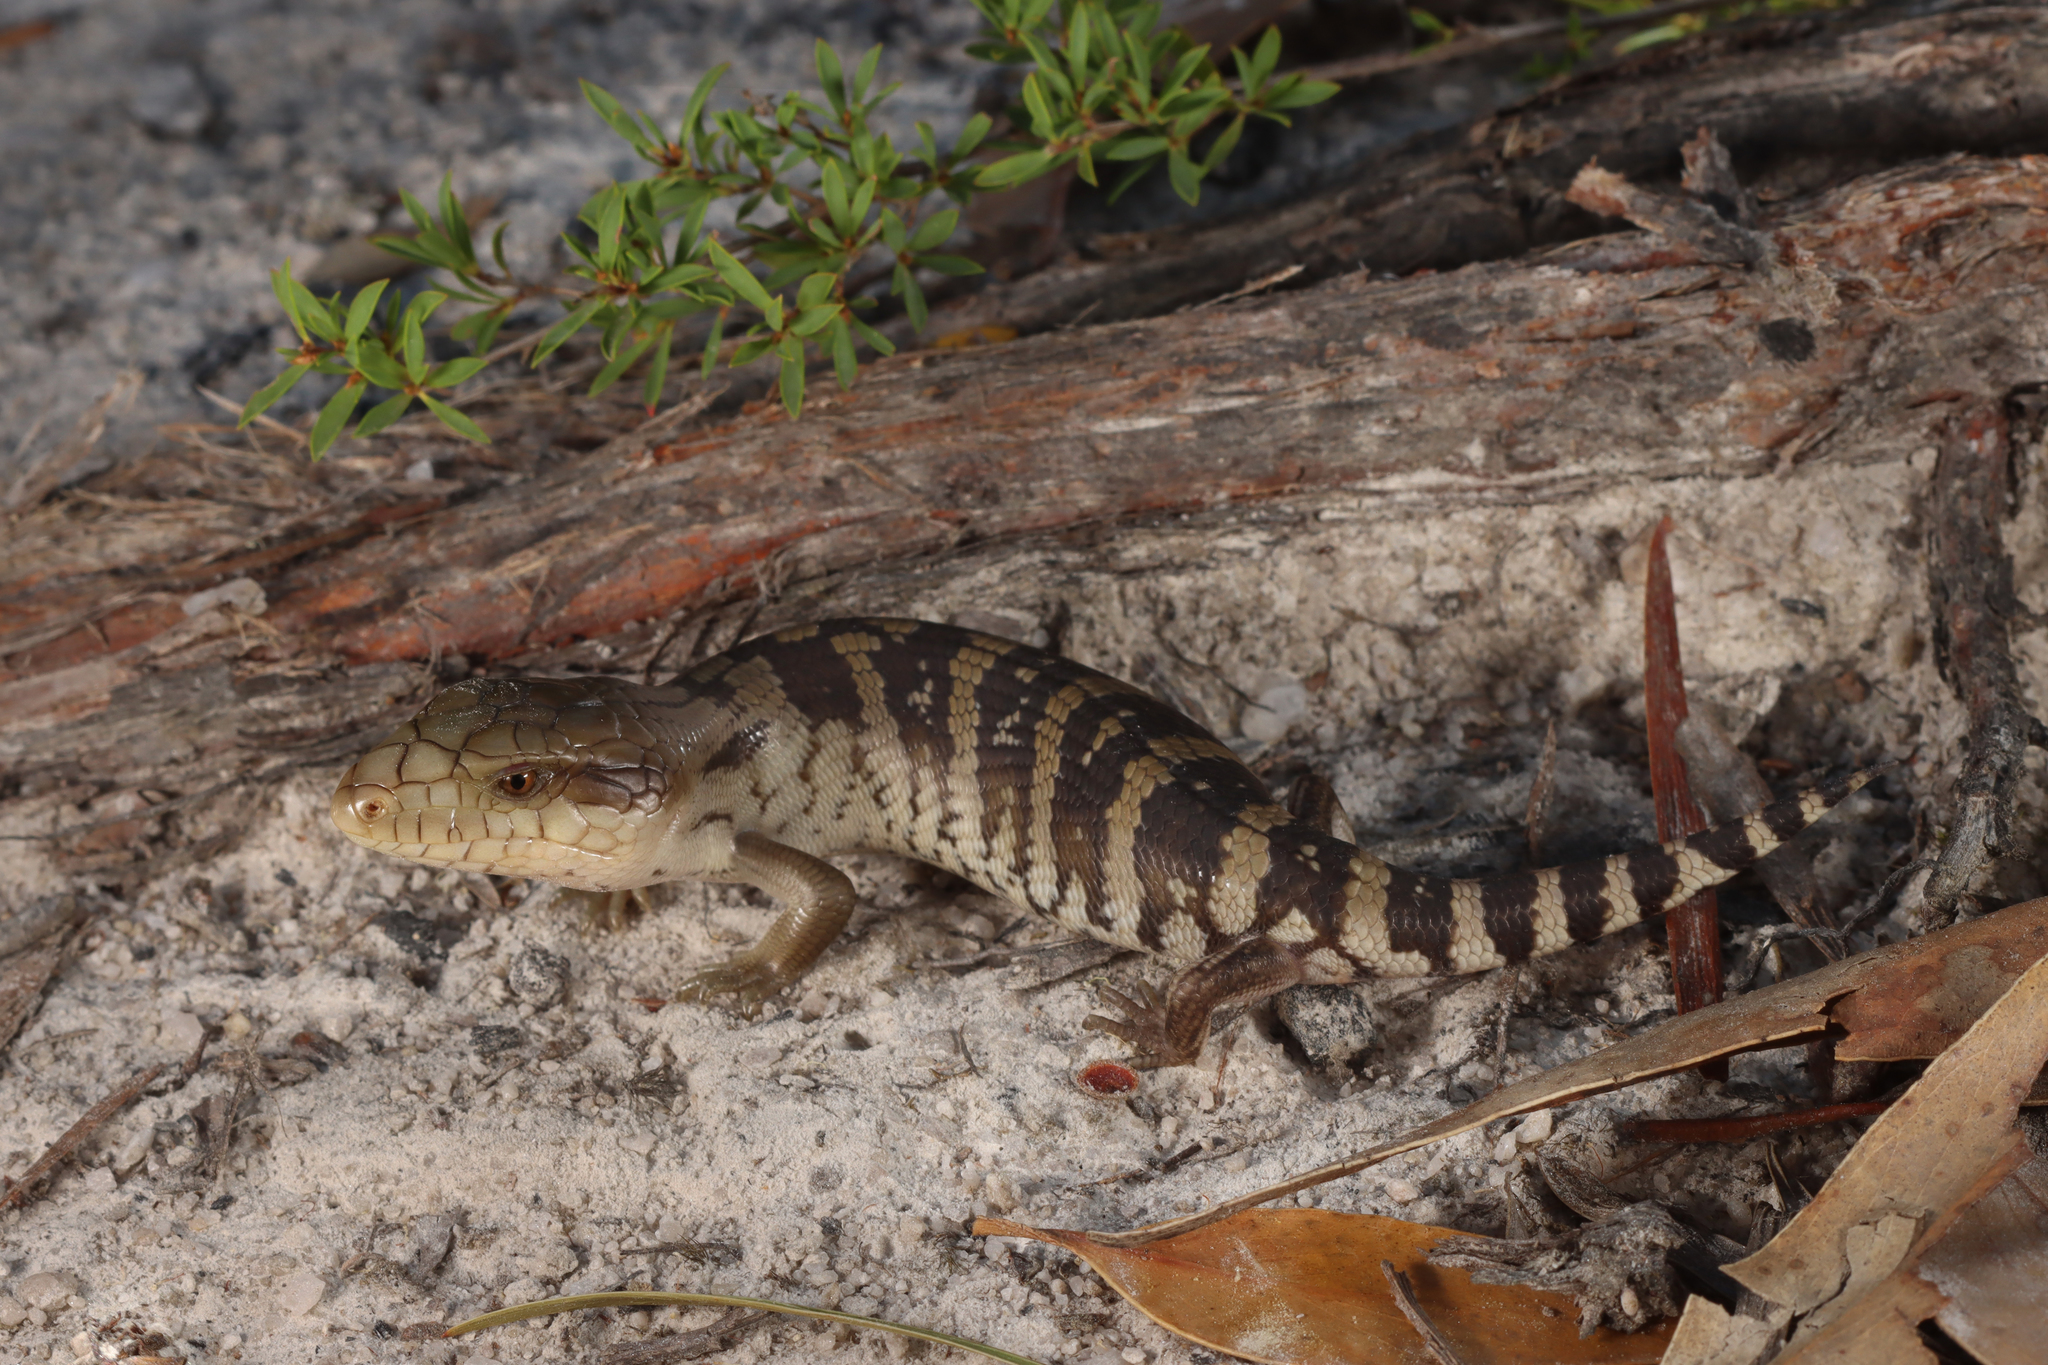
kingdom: Animalia
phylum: Chordata
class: Squamata
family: Scincidae
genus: Tiliqua
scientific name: Tiliqua scincoides
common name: Common bluetongue
